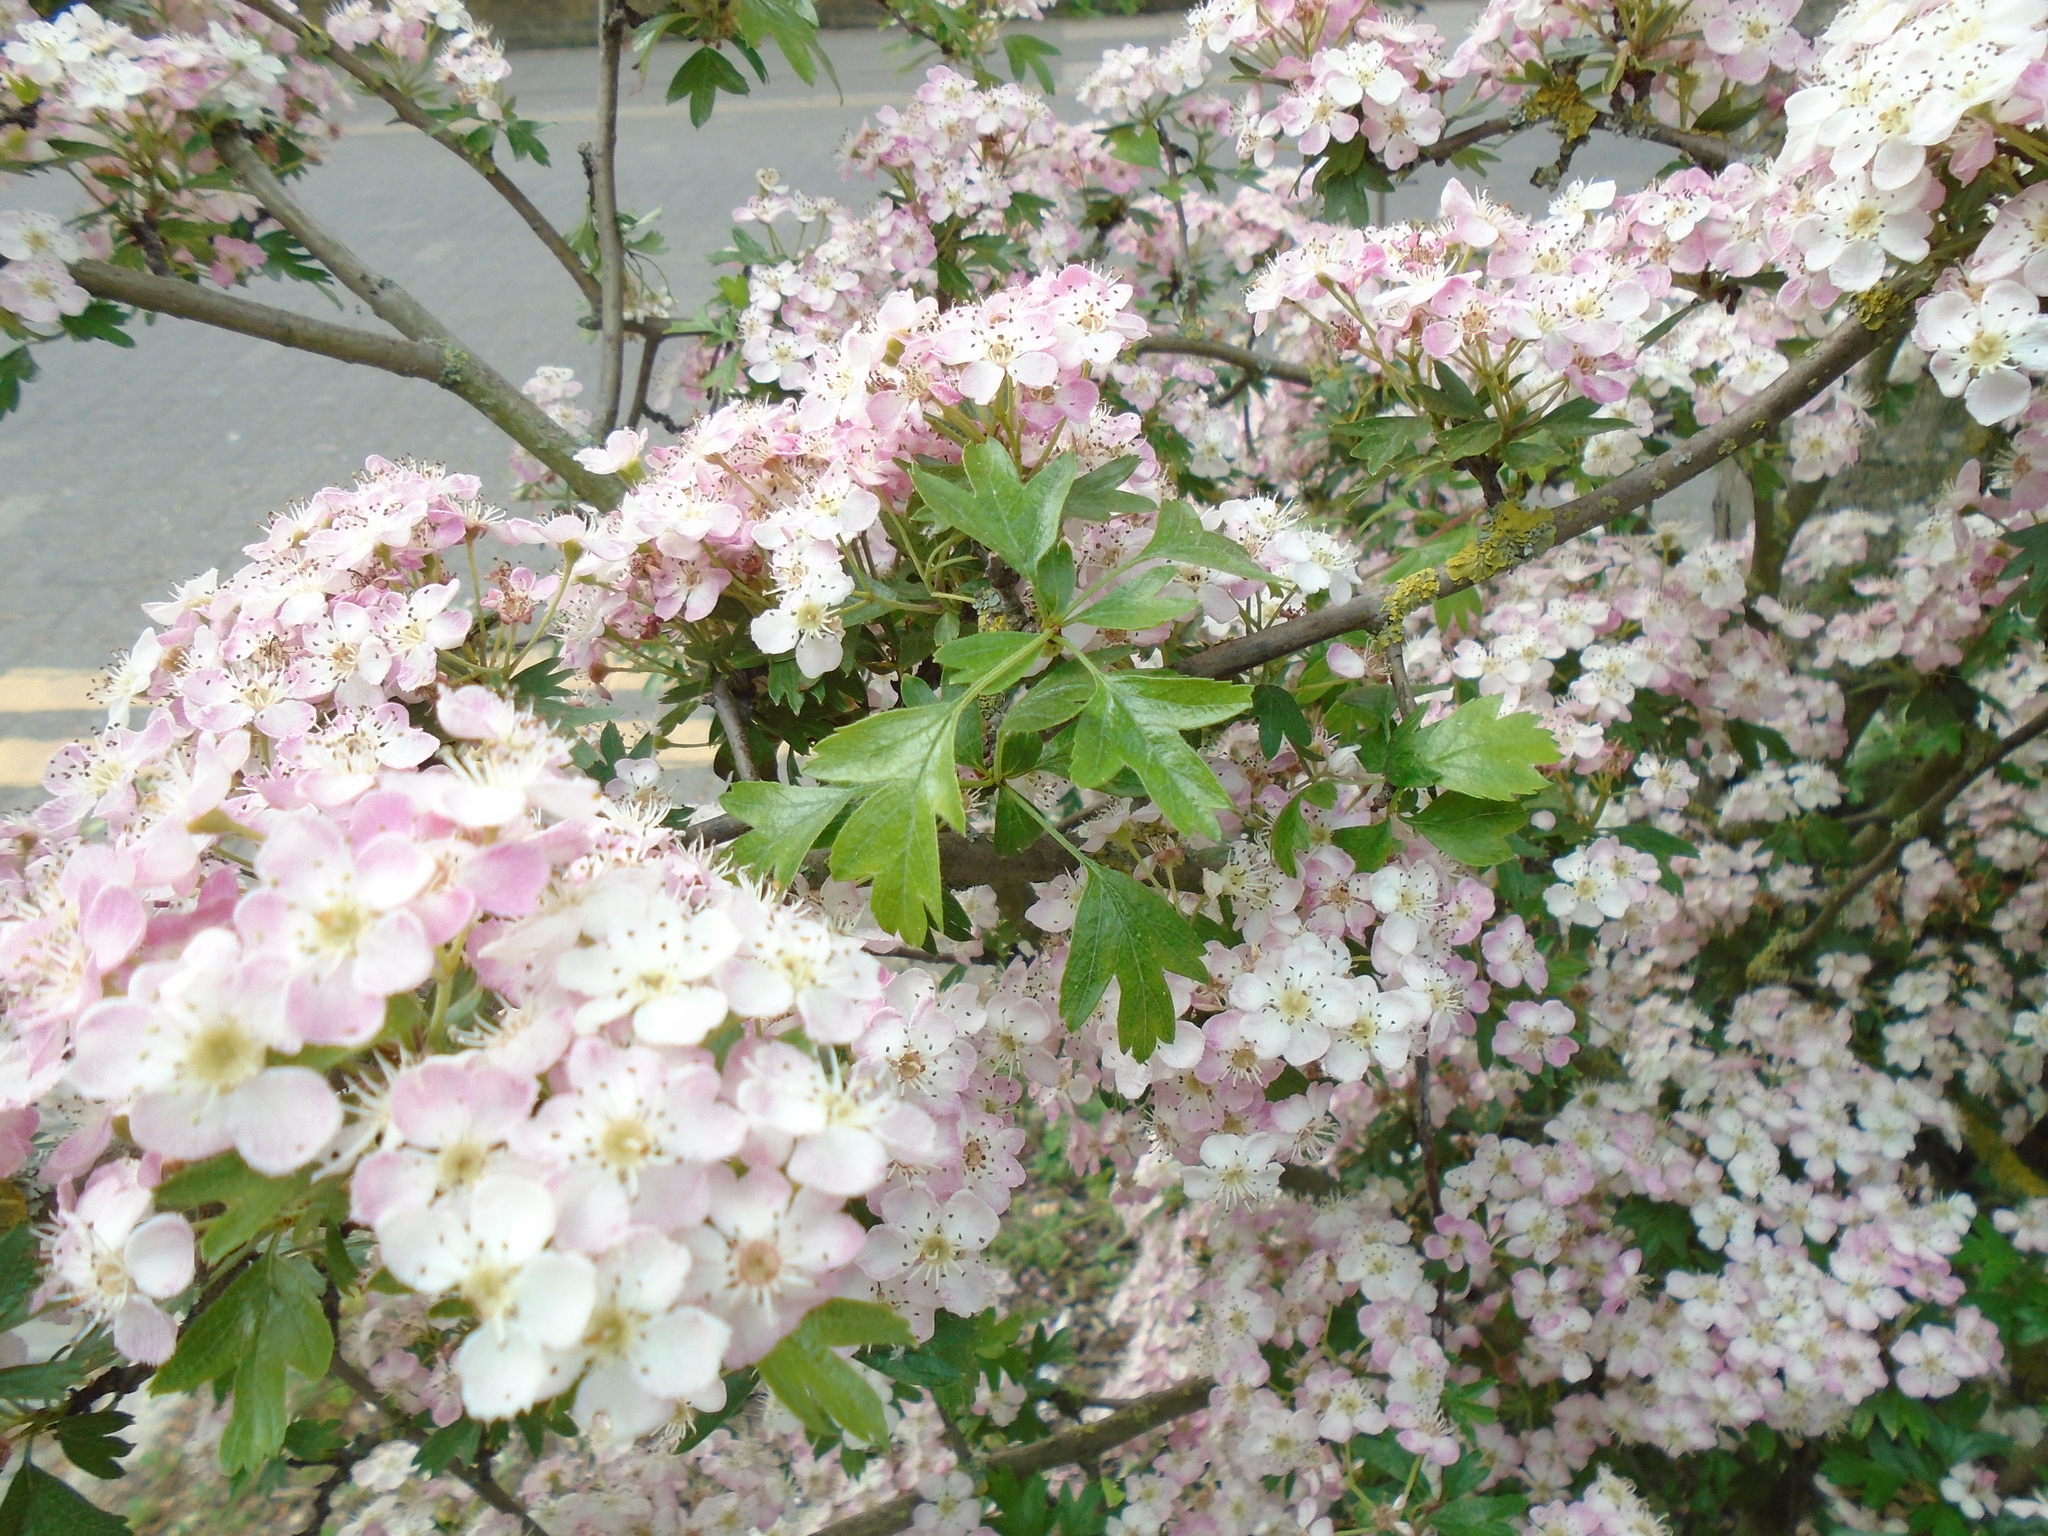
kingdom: Plantae
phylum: Tracheophyta
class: Magnoliopsida
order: Rosales
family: Rosaceae
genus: Crataegus
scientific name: Crataegus monogyna
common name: Hawthorn
